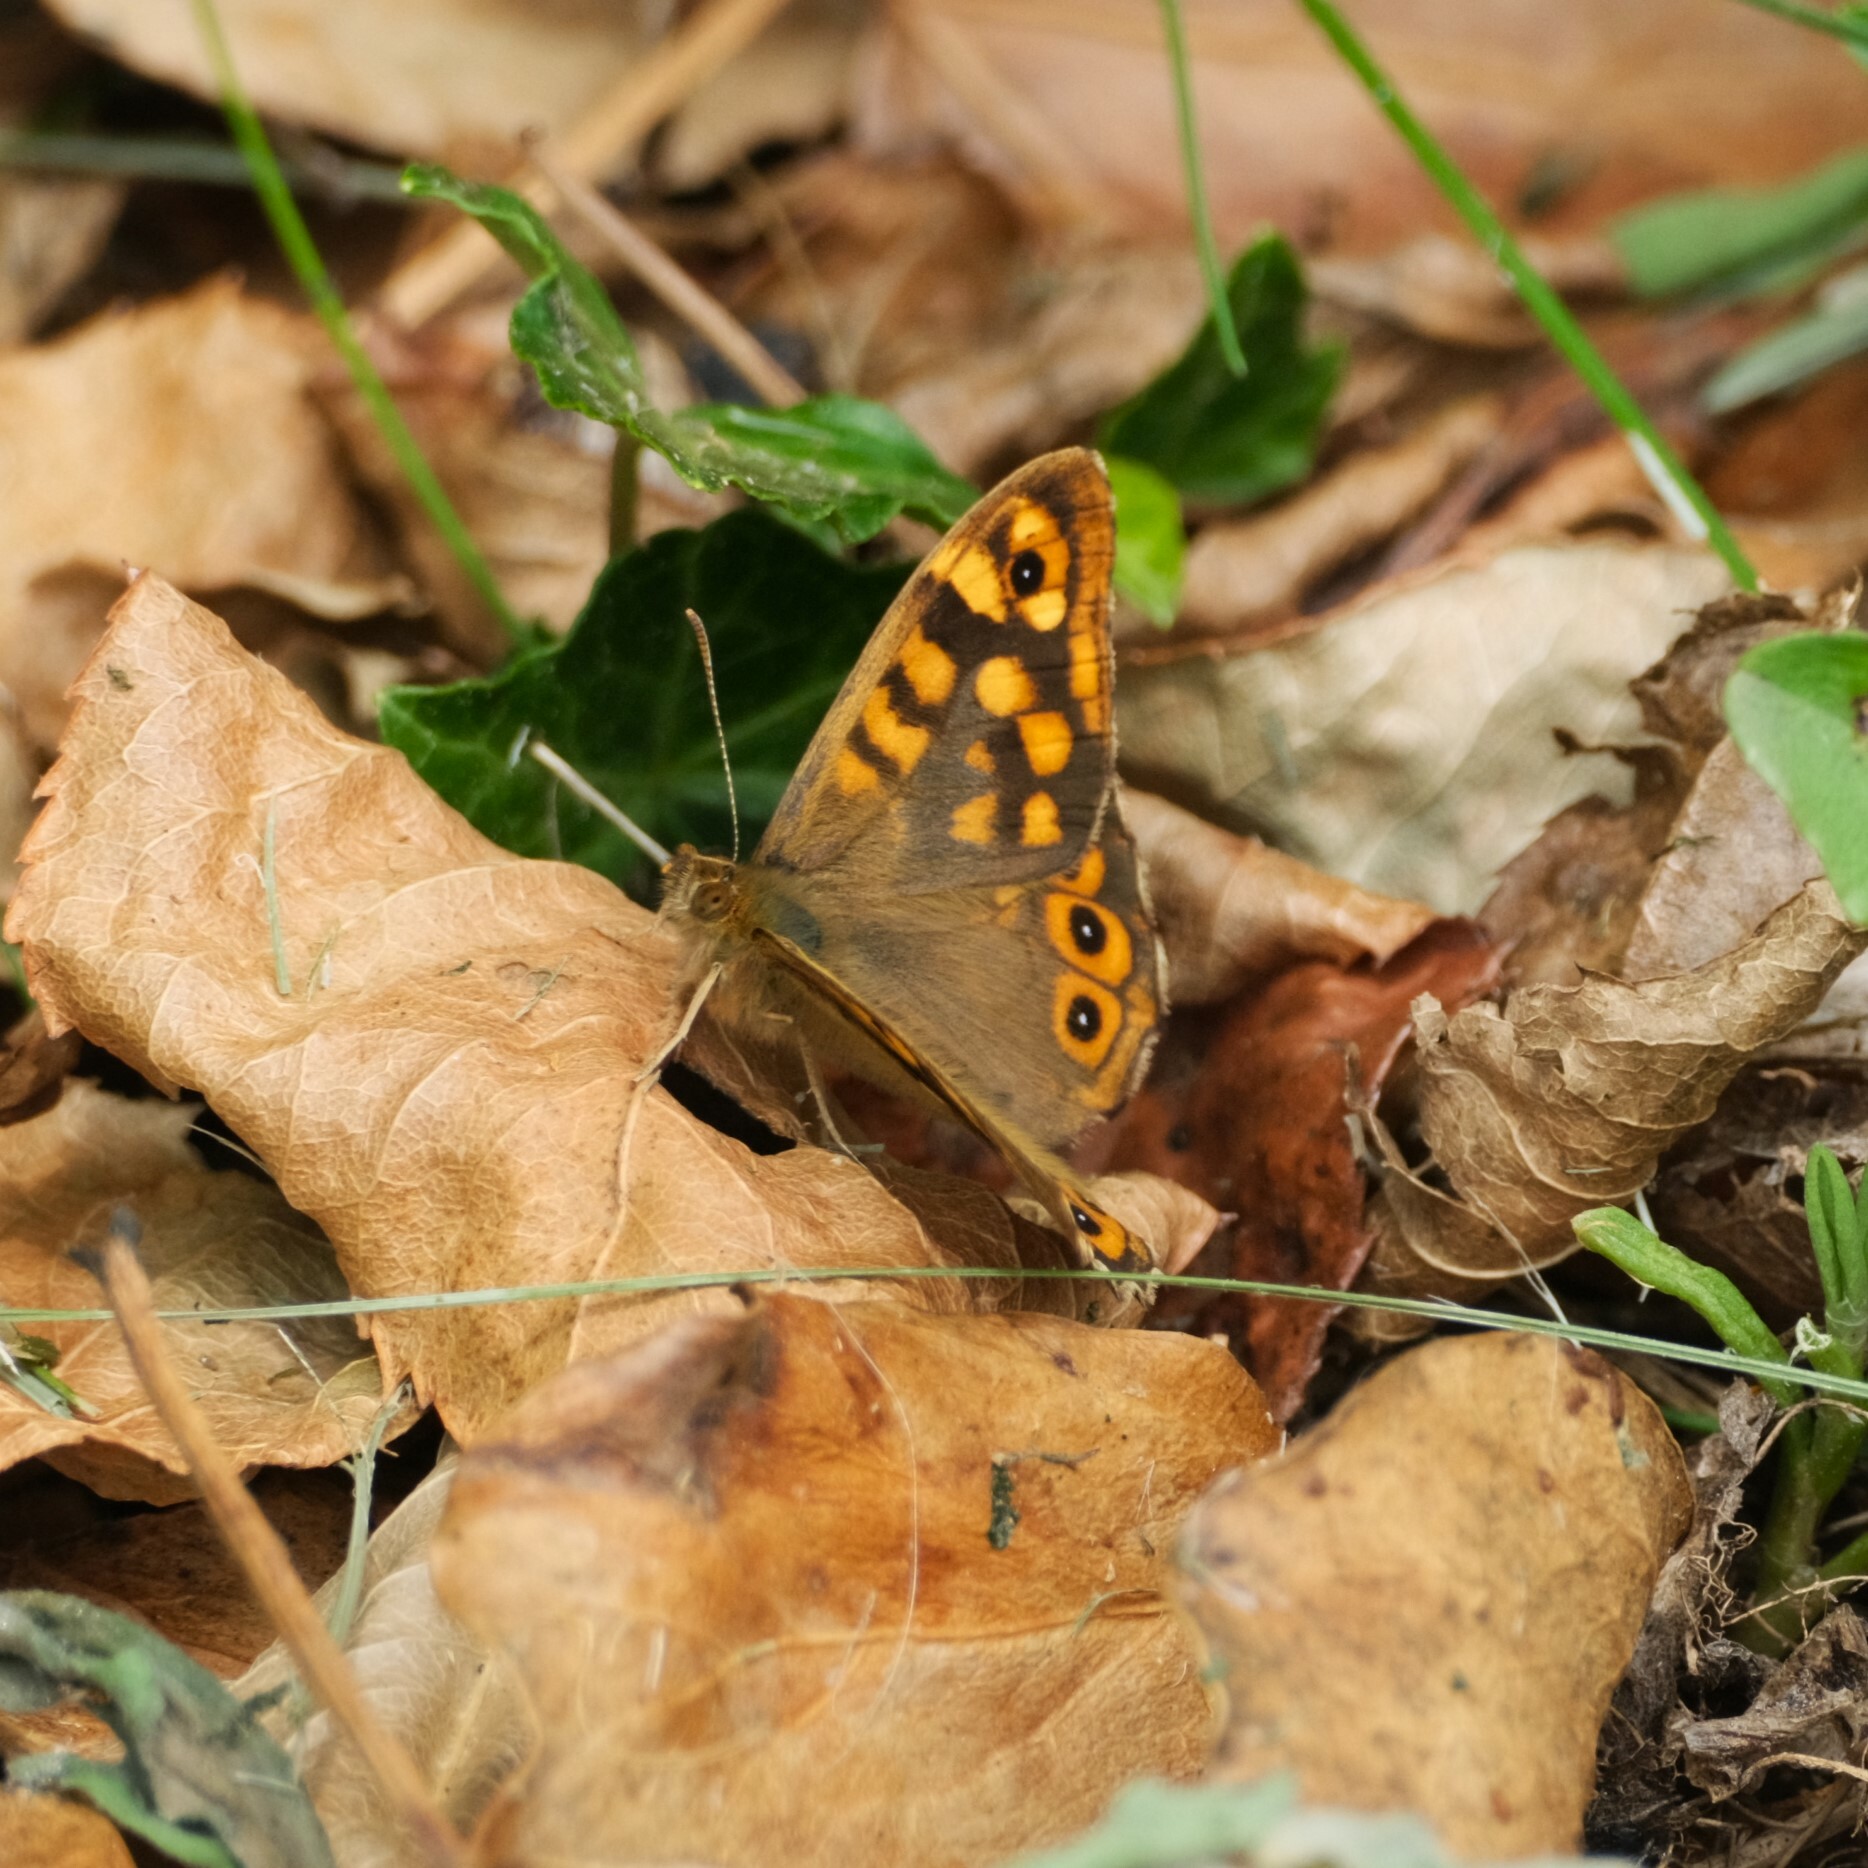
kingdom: Animalia
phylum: Arthropoda
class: Insecta
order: Lepidoptera
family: Nymphalidae
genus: Pararge
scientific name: Pararge aegeria
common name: Speckled wood
